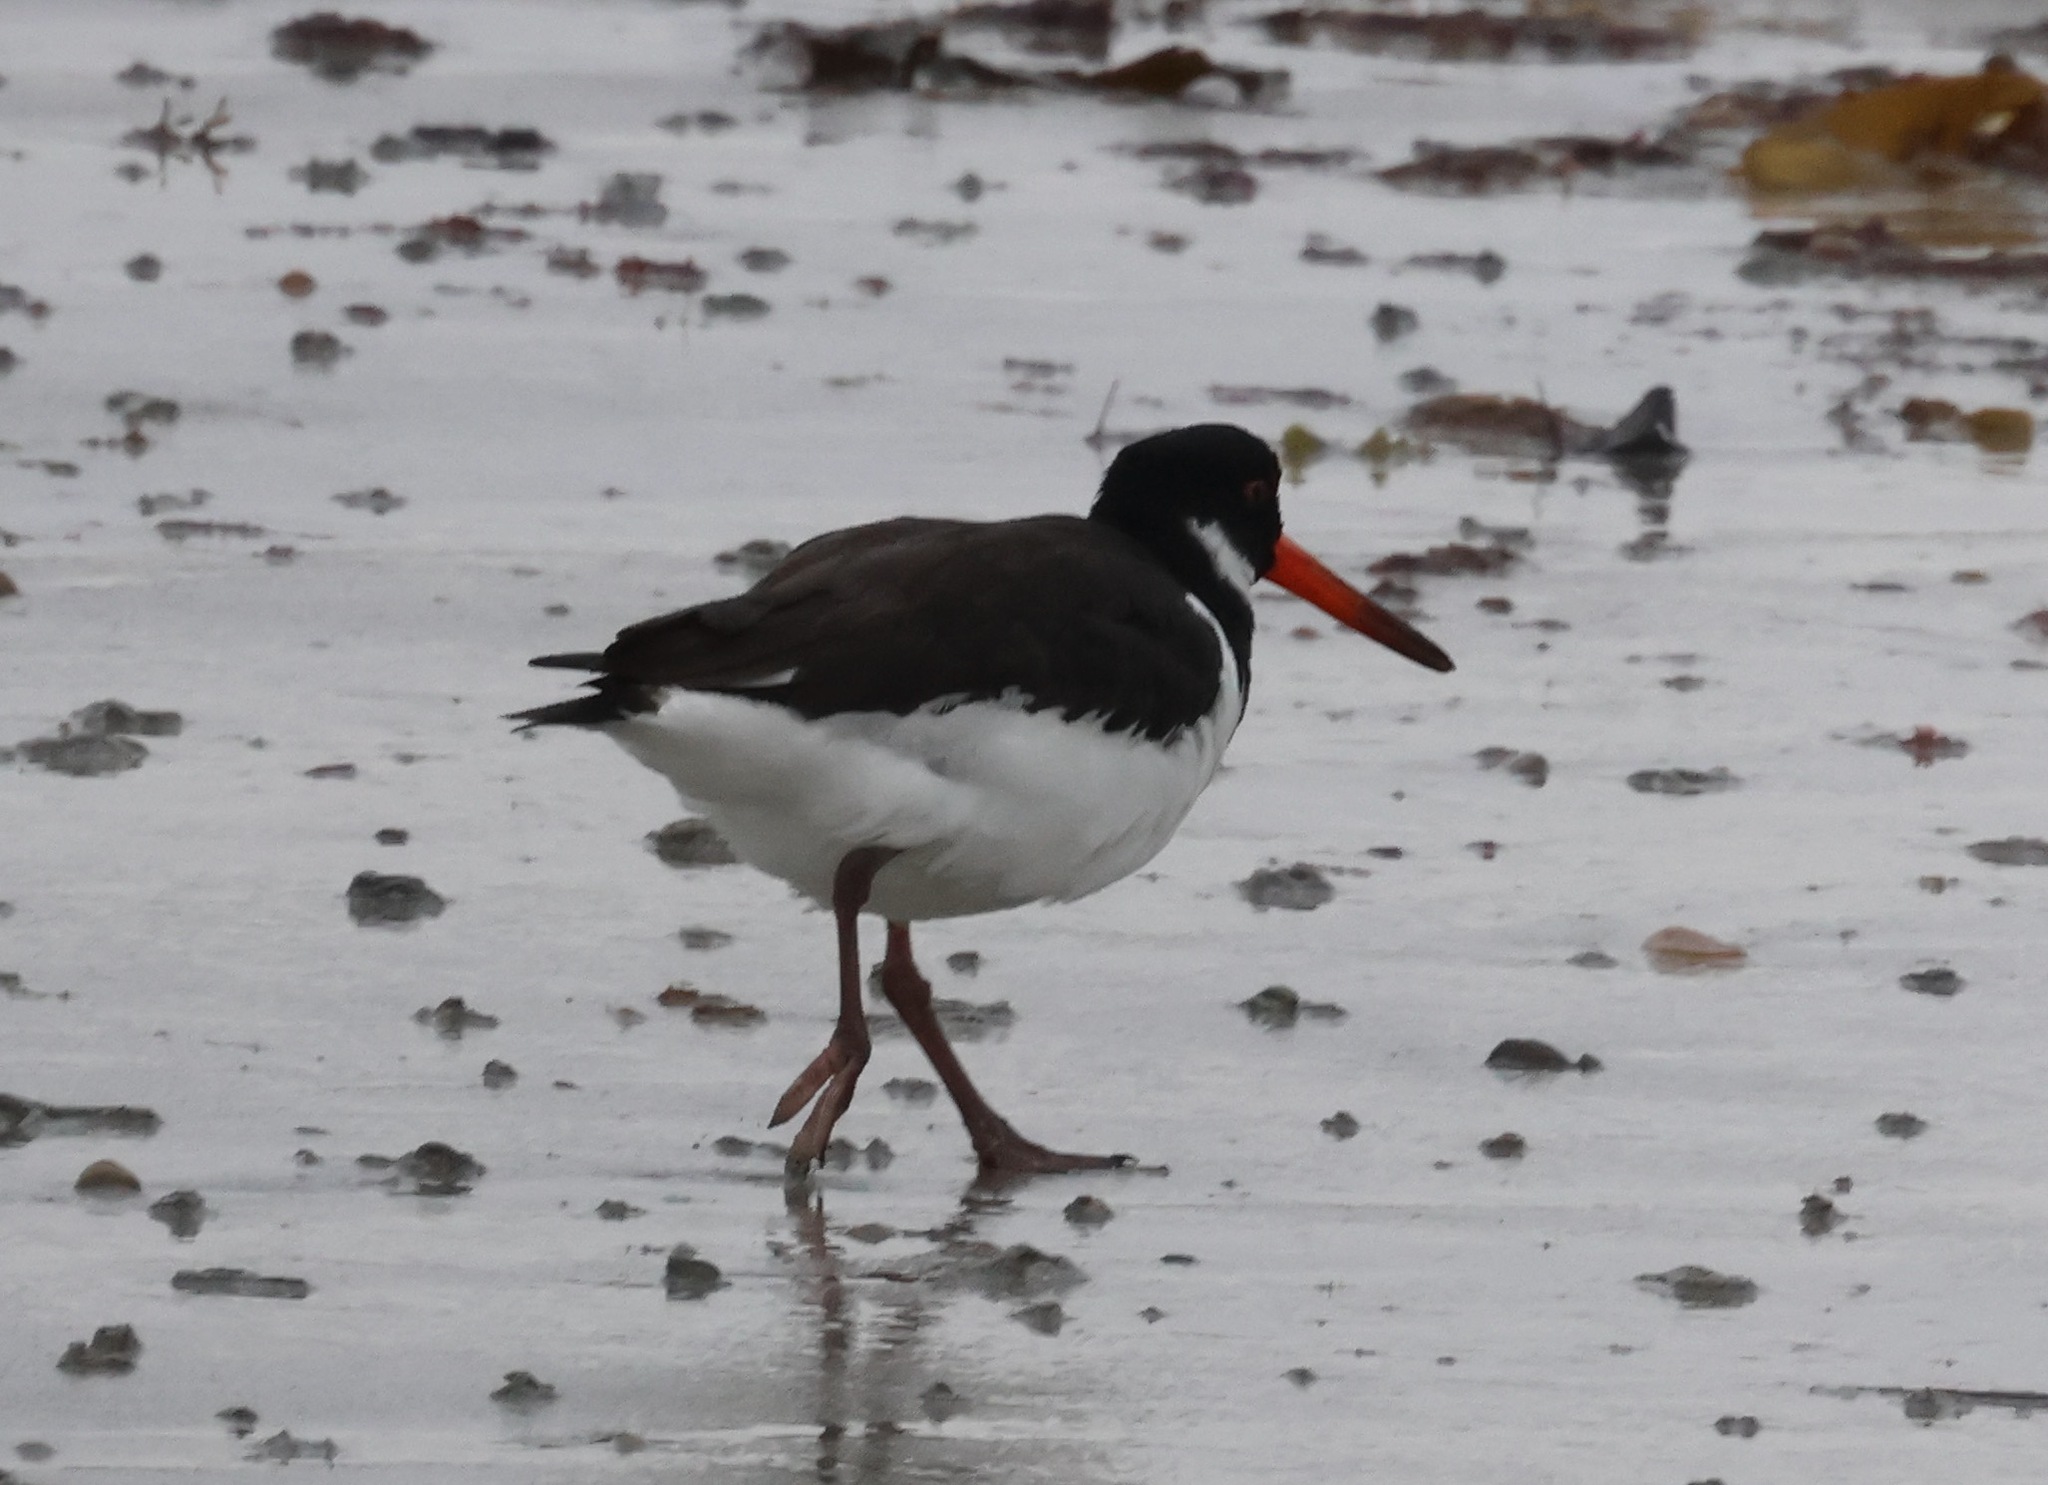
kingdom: Animalia
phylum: Chordata
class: Aves
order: Charadriiformes
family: Haematopodidae
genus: Haematopus
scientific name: Haematopus ostralegus
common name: Eurasian oystercatcher
